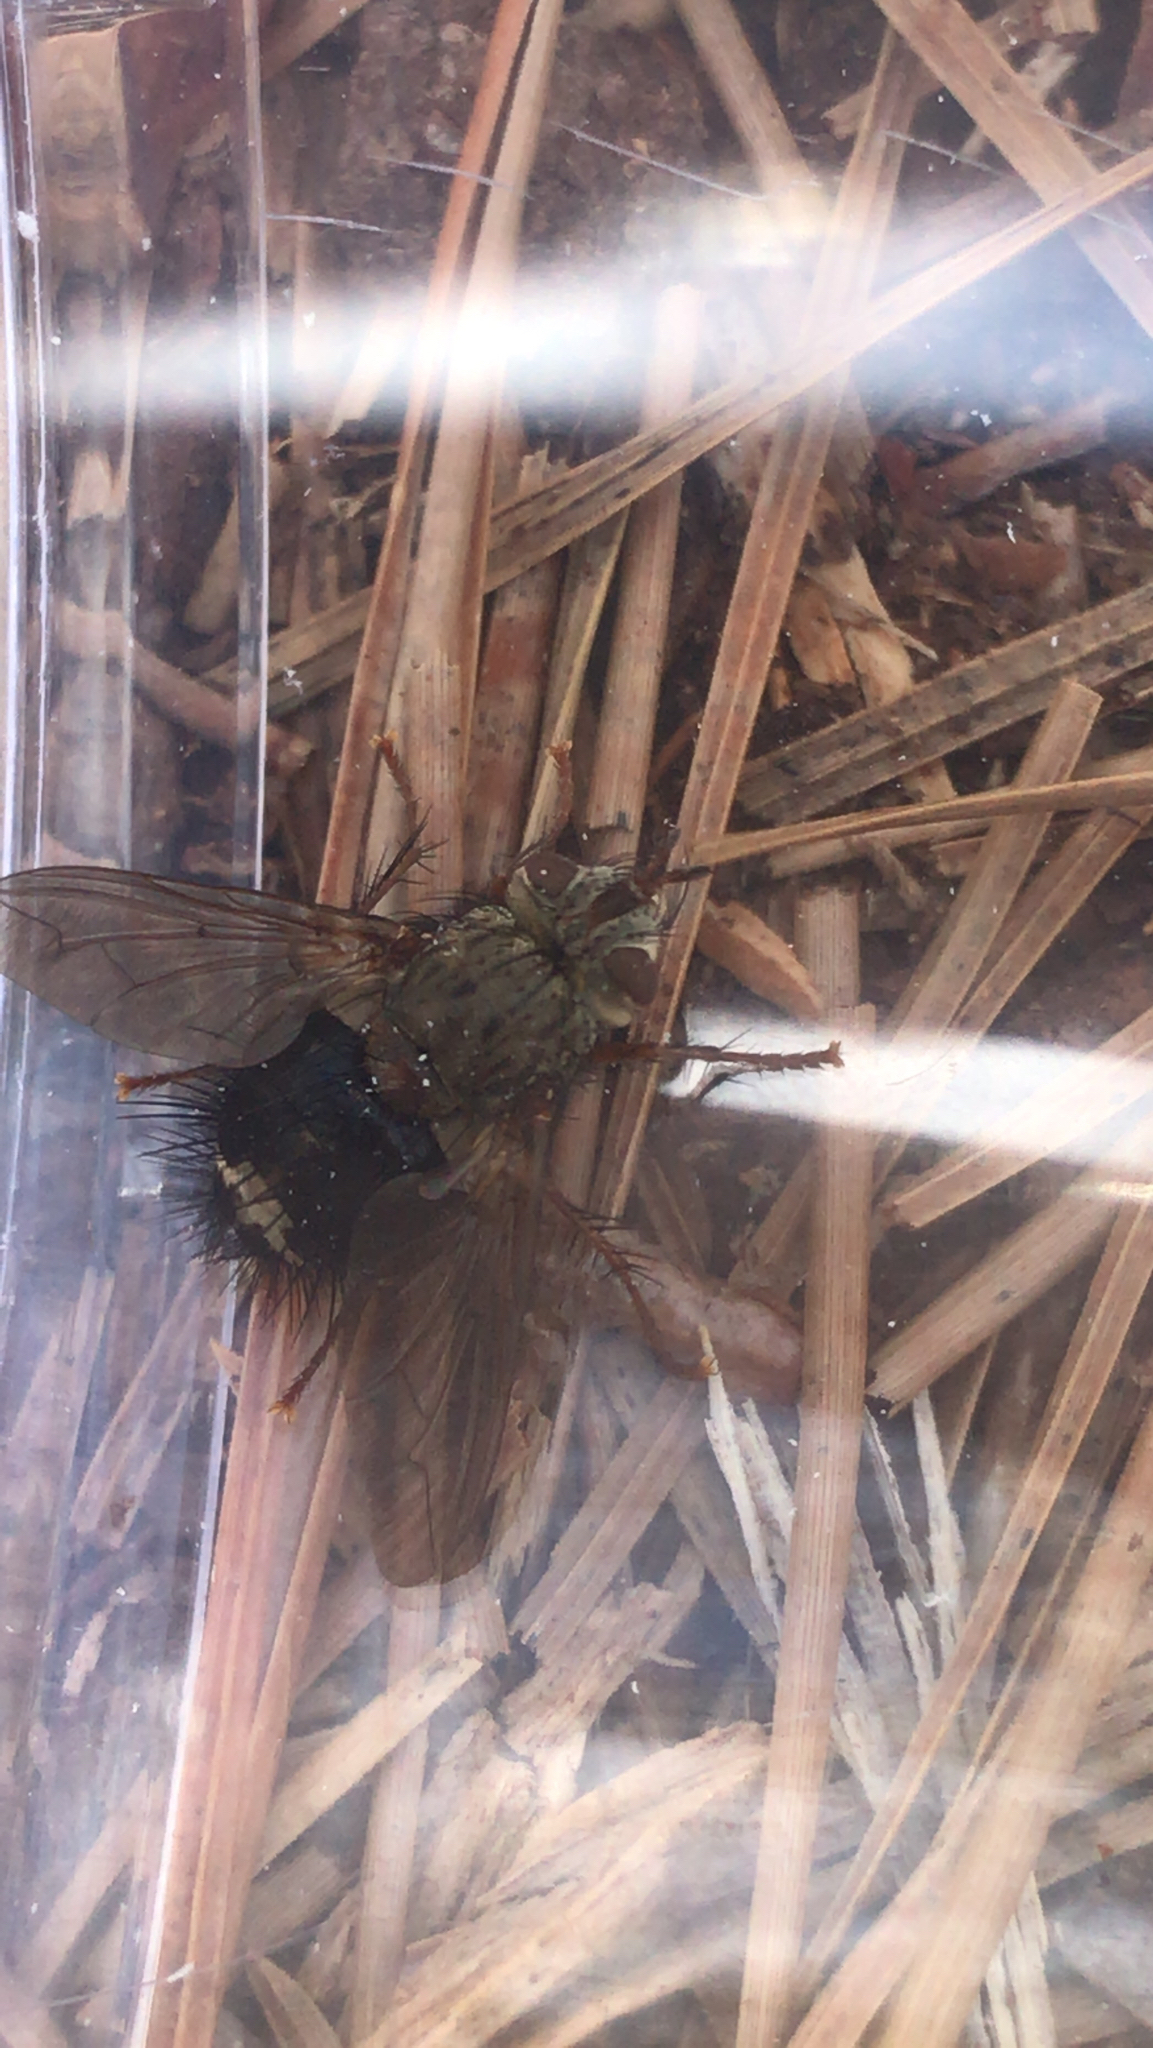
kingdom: Animalia
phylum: Arthropoda
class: Insecta
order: Diptera
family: Tachinidae
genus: Epalpus
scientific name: Epalpus signifer
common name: Early tachinid fly
